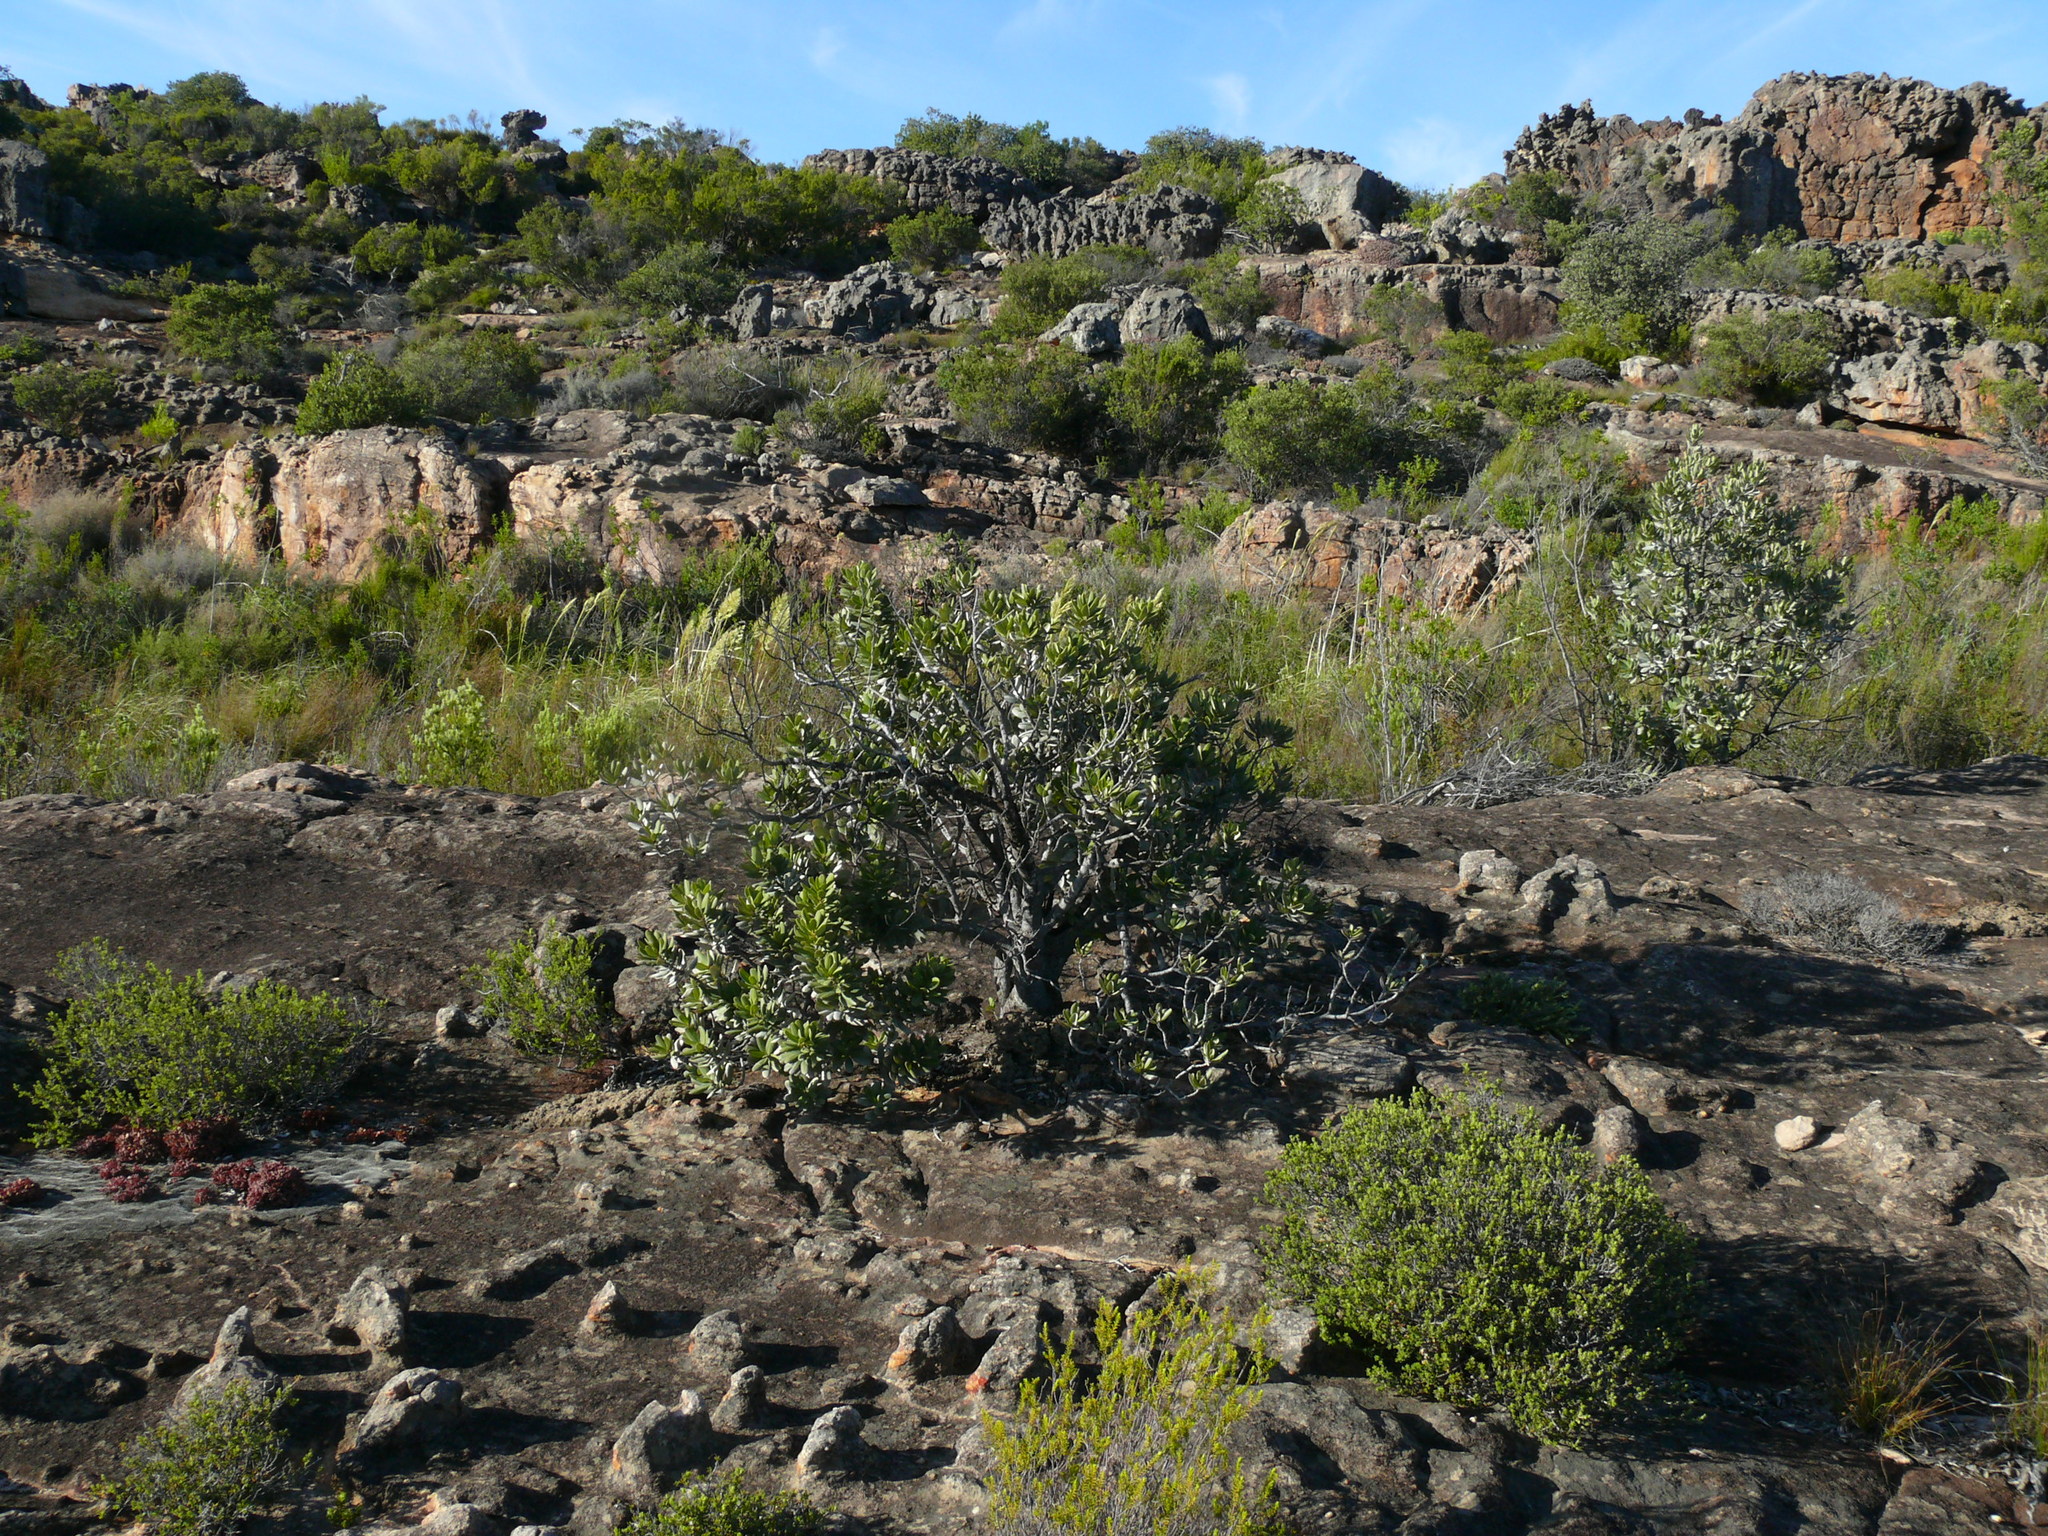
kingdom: Plantae
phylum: Tracheophyta
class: Magnoliopsida
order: Sapindales
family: Anacardiaceae
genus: Heeria
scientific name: Heeria argentea
